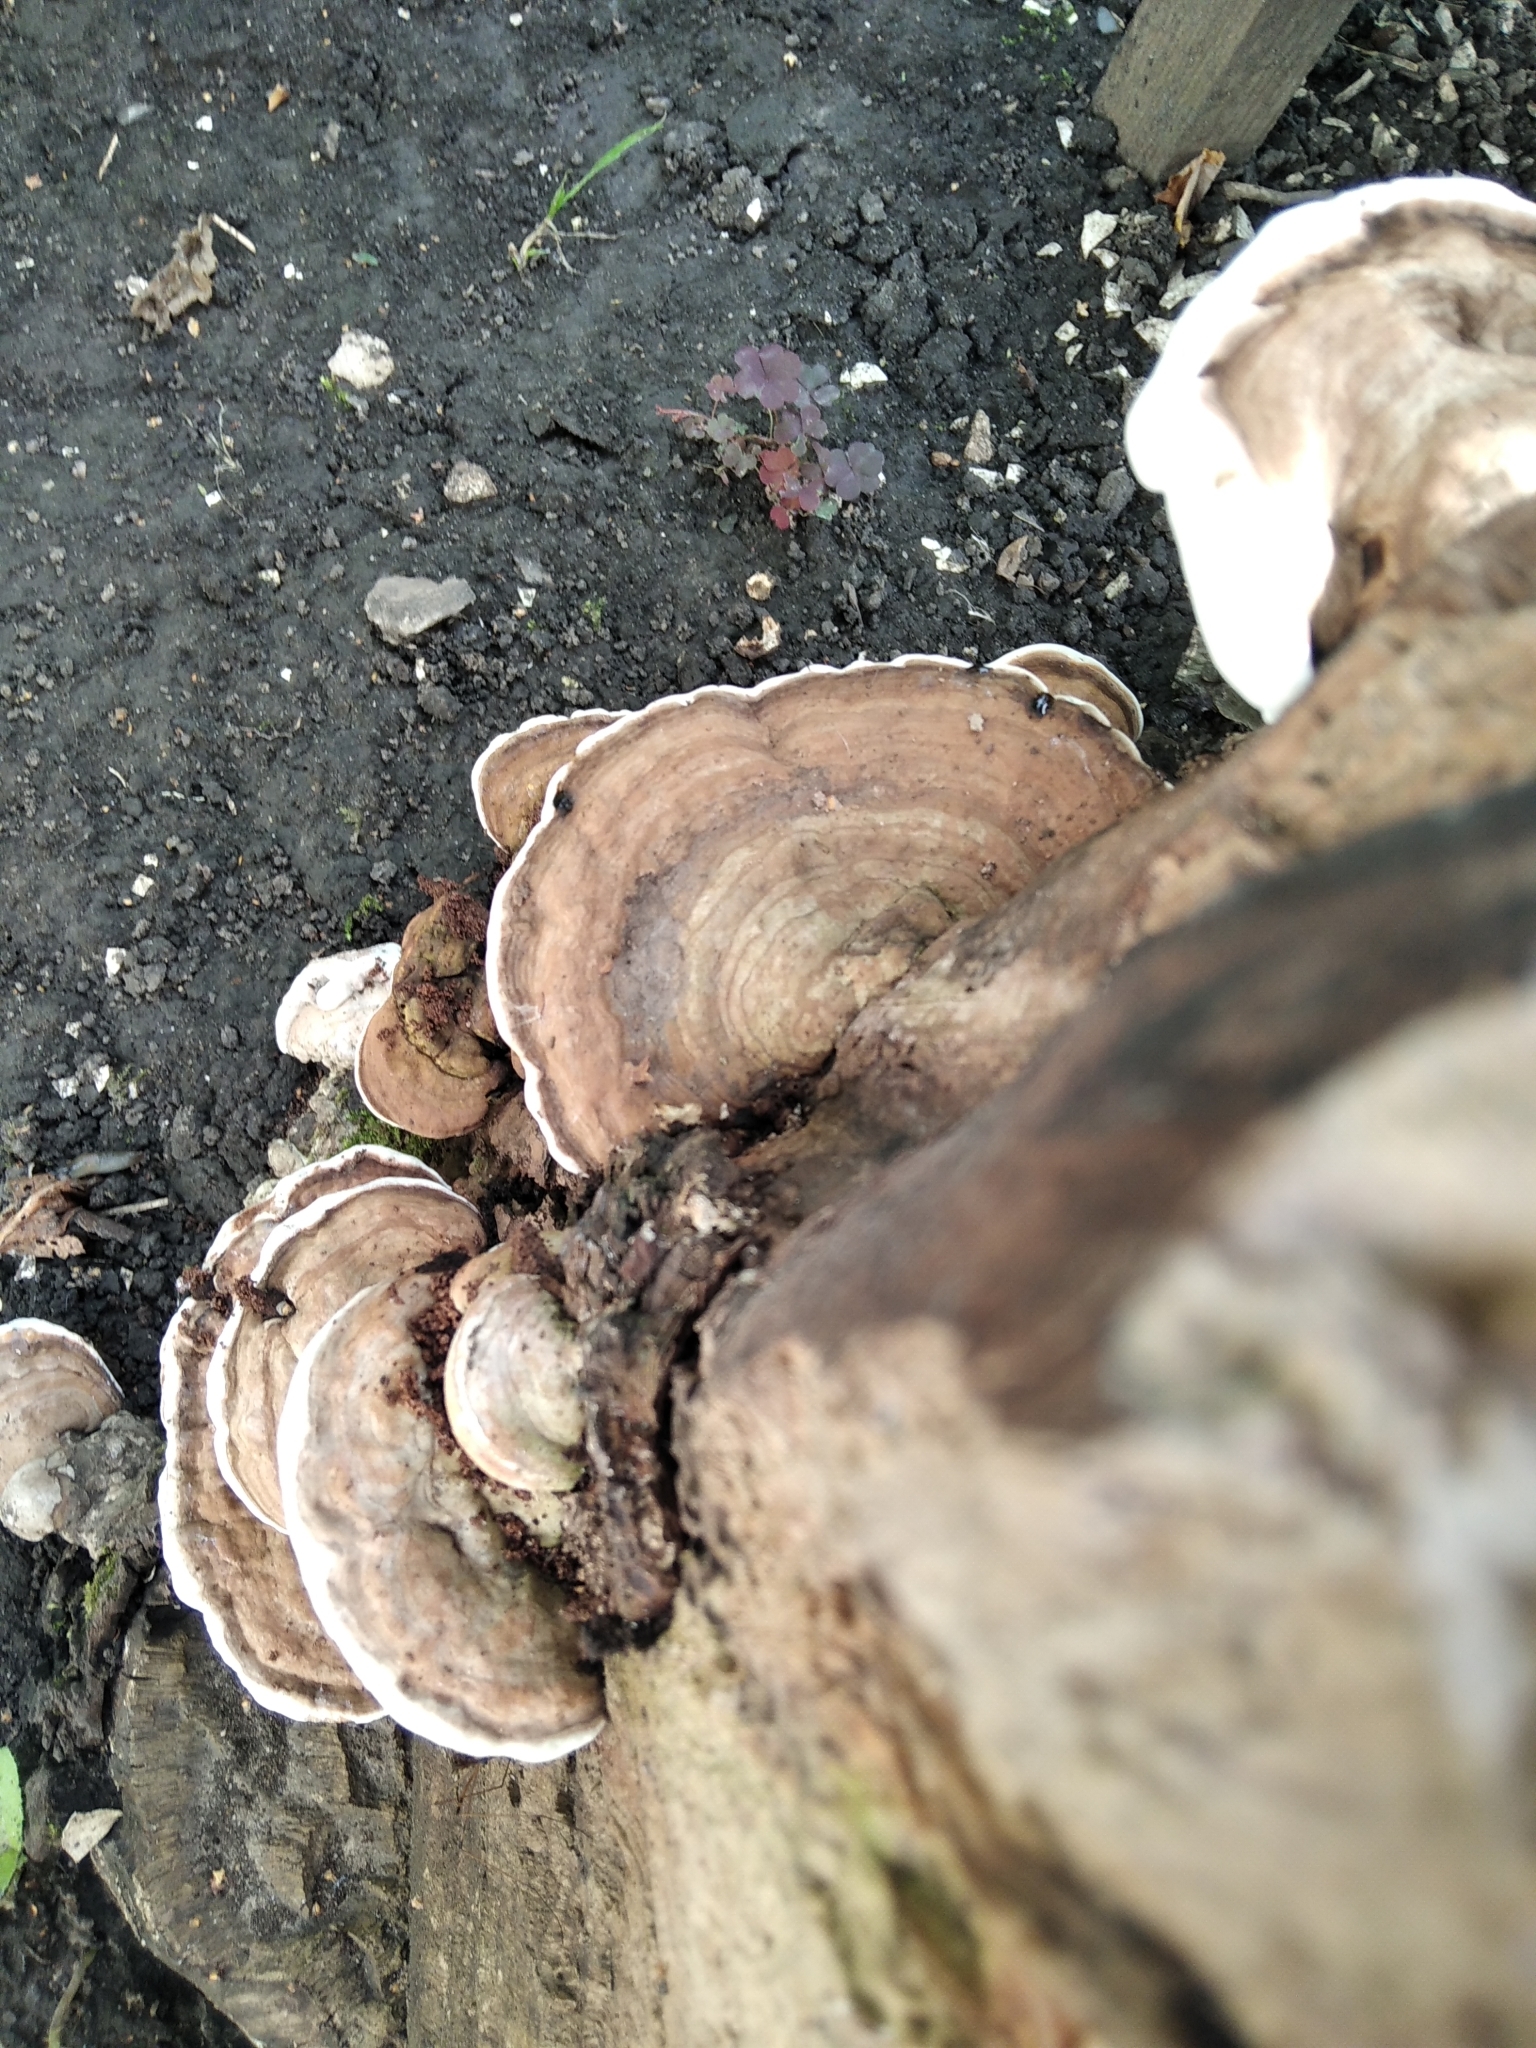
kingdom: Fungi
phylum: Basidiomycota
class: Agaricomycetes
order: Polyporales
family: Polyporaceae
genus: Ganoderma
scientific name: Ganoderma applanatum
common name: Artist's bracket
